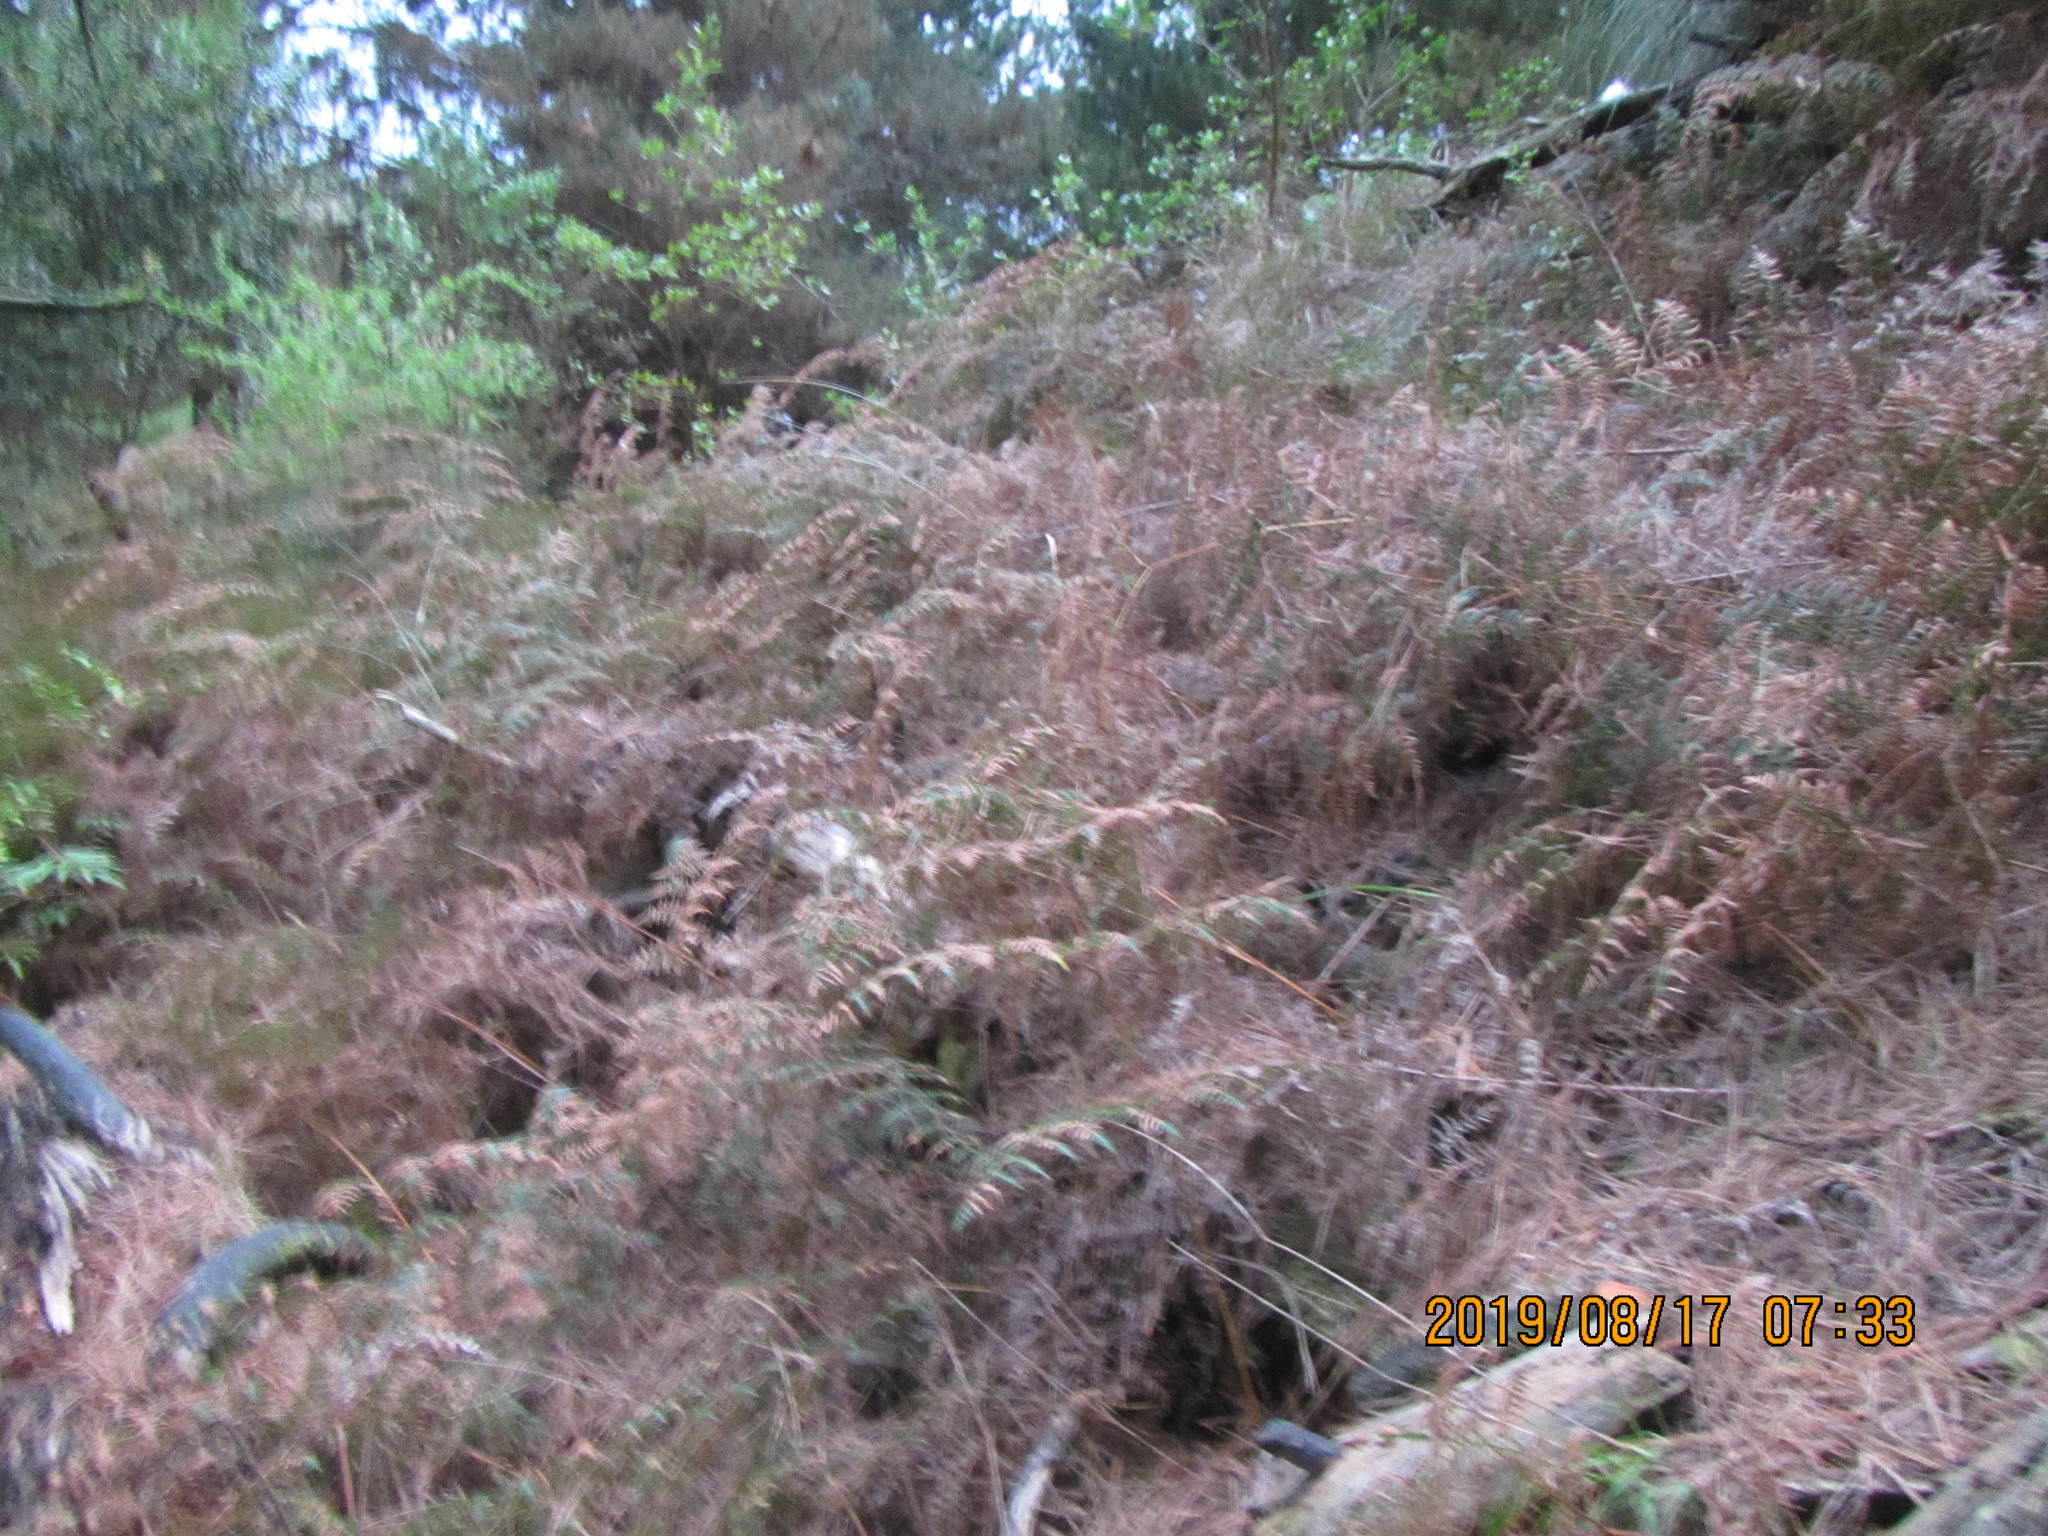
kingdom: Plantae
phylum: Tracheophyta
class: Polypodiopsida
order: Polypodiales
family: Dennstaedtiaceae
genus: Pteridium
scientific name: Pteridium esculentum
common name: Bracken fern
